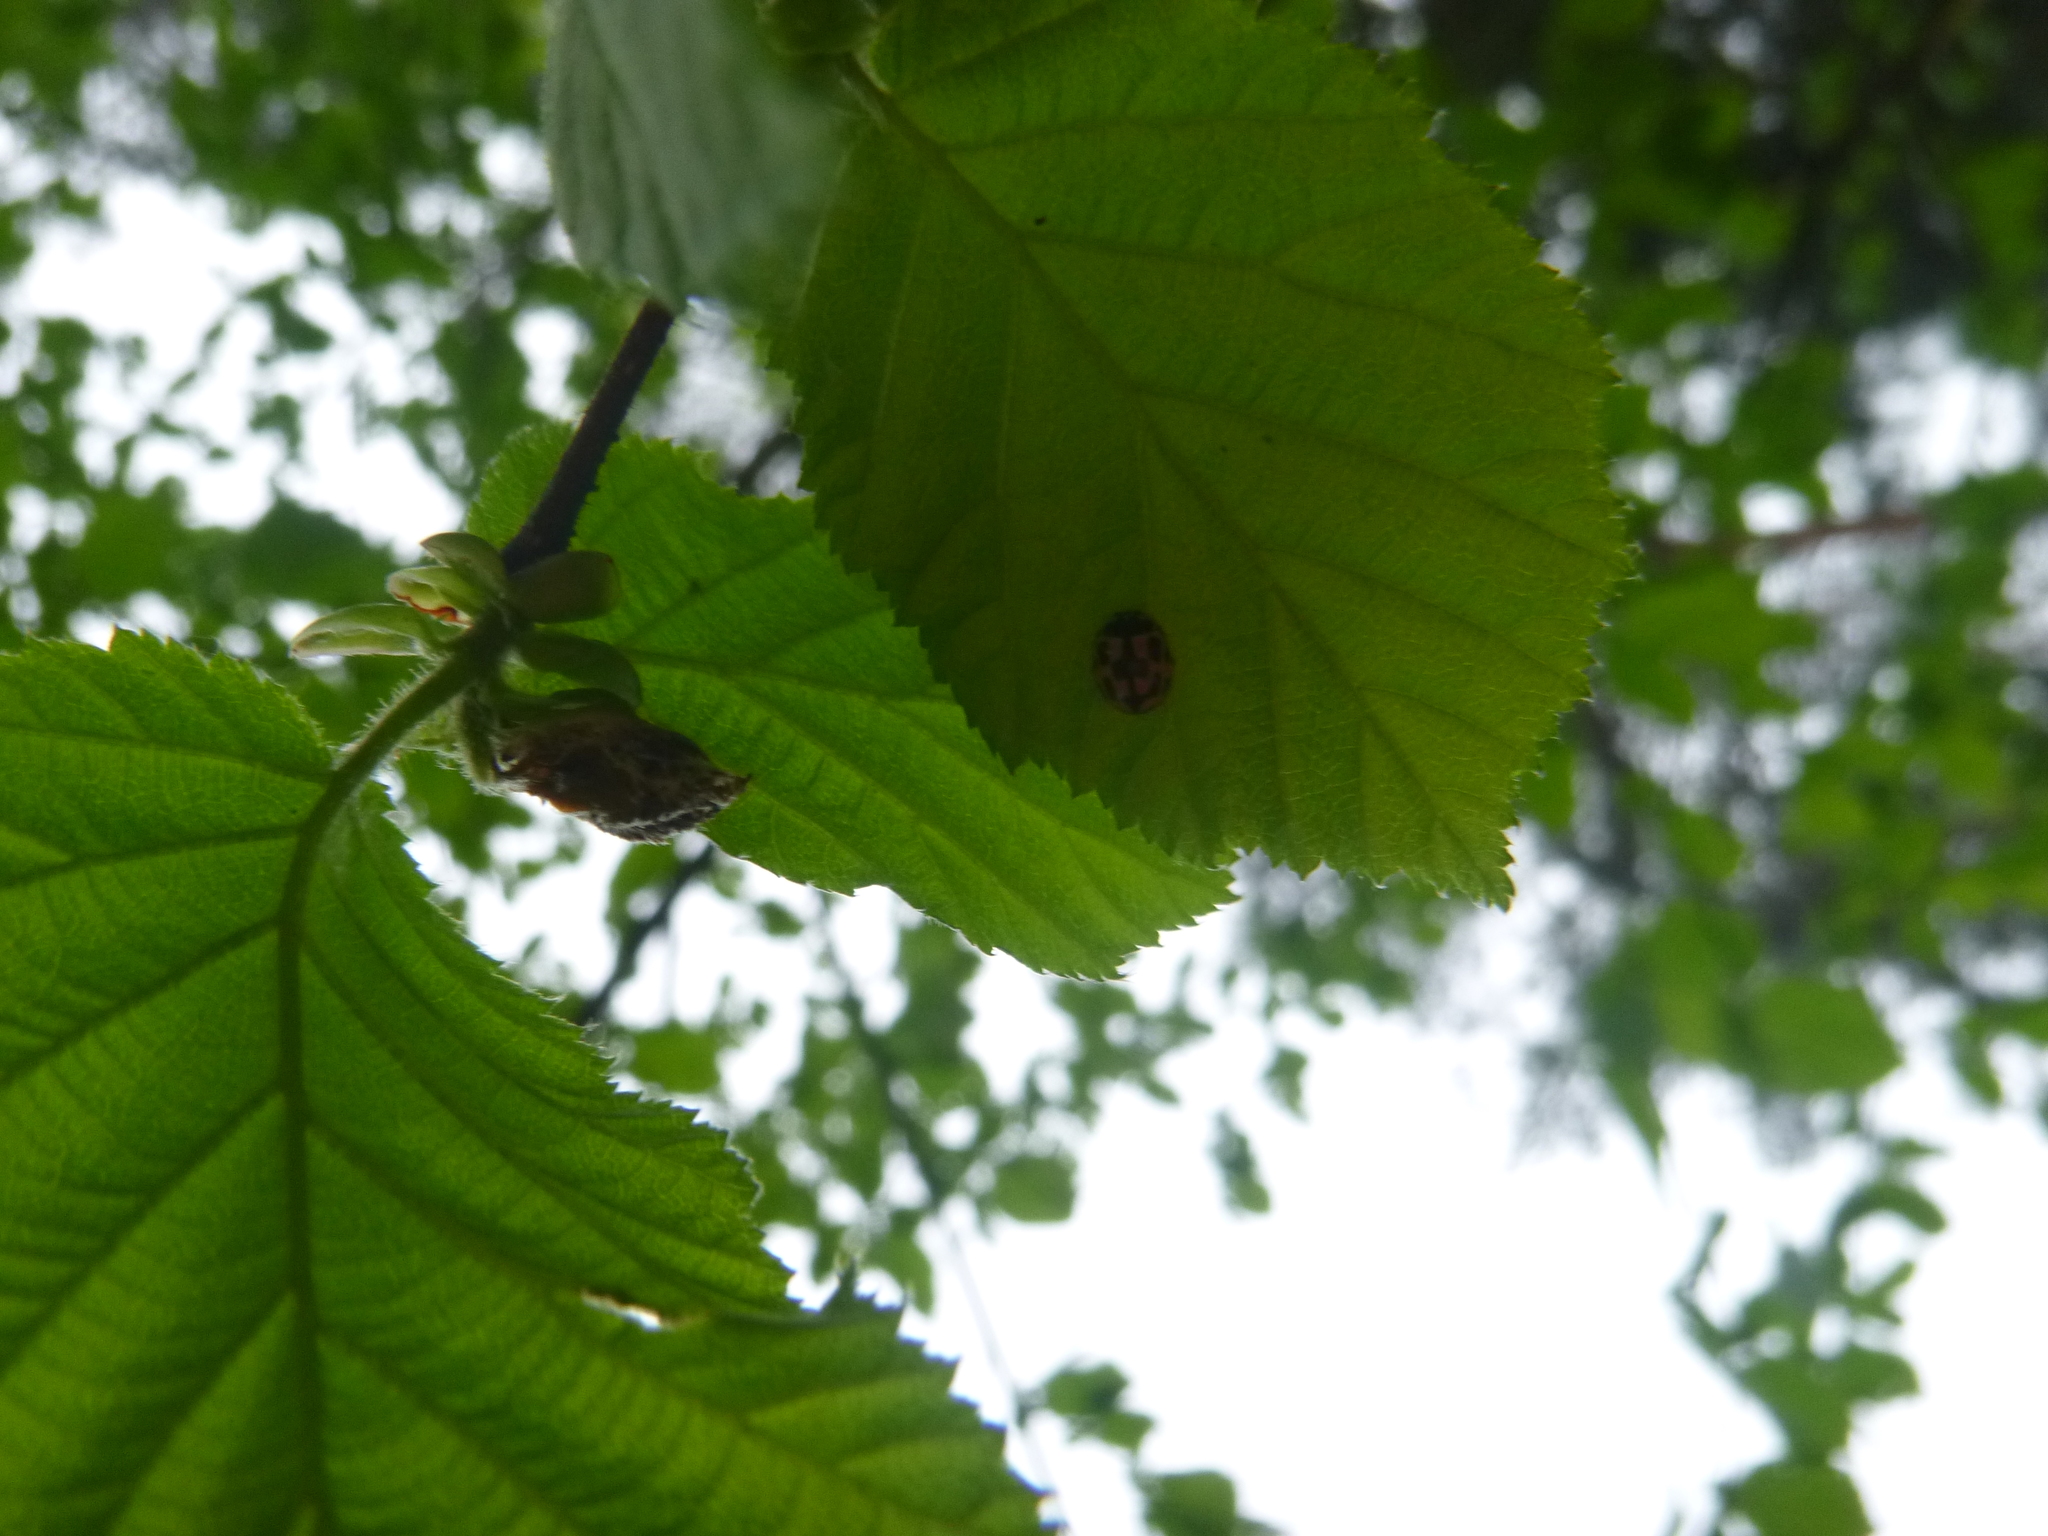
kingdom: Animalia
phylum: Arthropoda
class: Insecta
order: Coleoptera
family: Coccinellidae
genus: Propylaea
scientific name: Propylaea quatuordecimpunctata
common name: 14-spotted ladybird beetle
